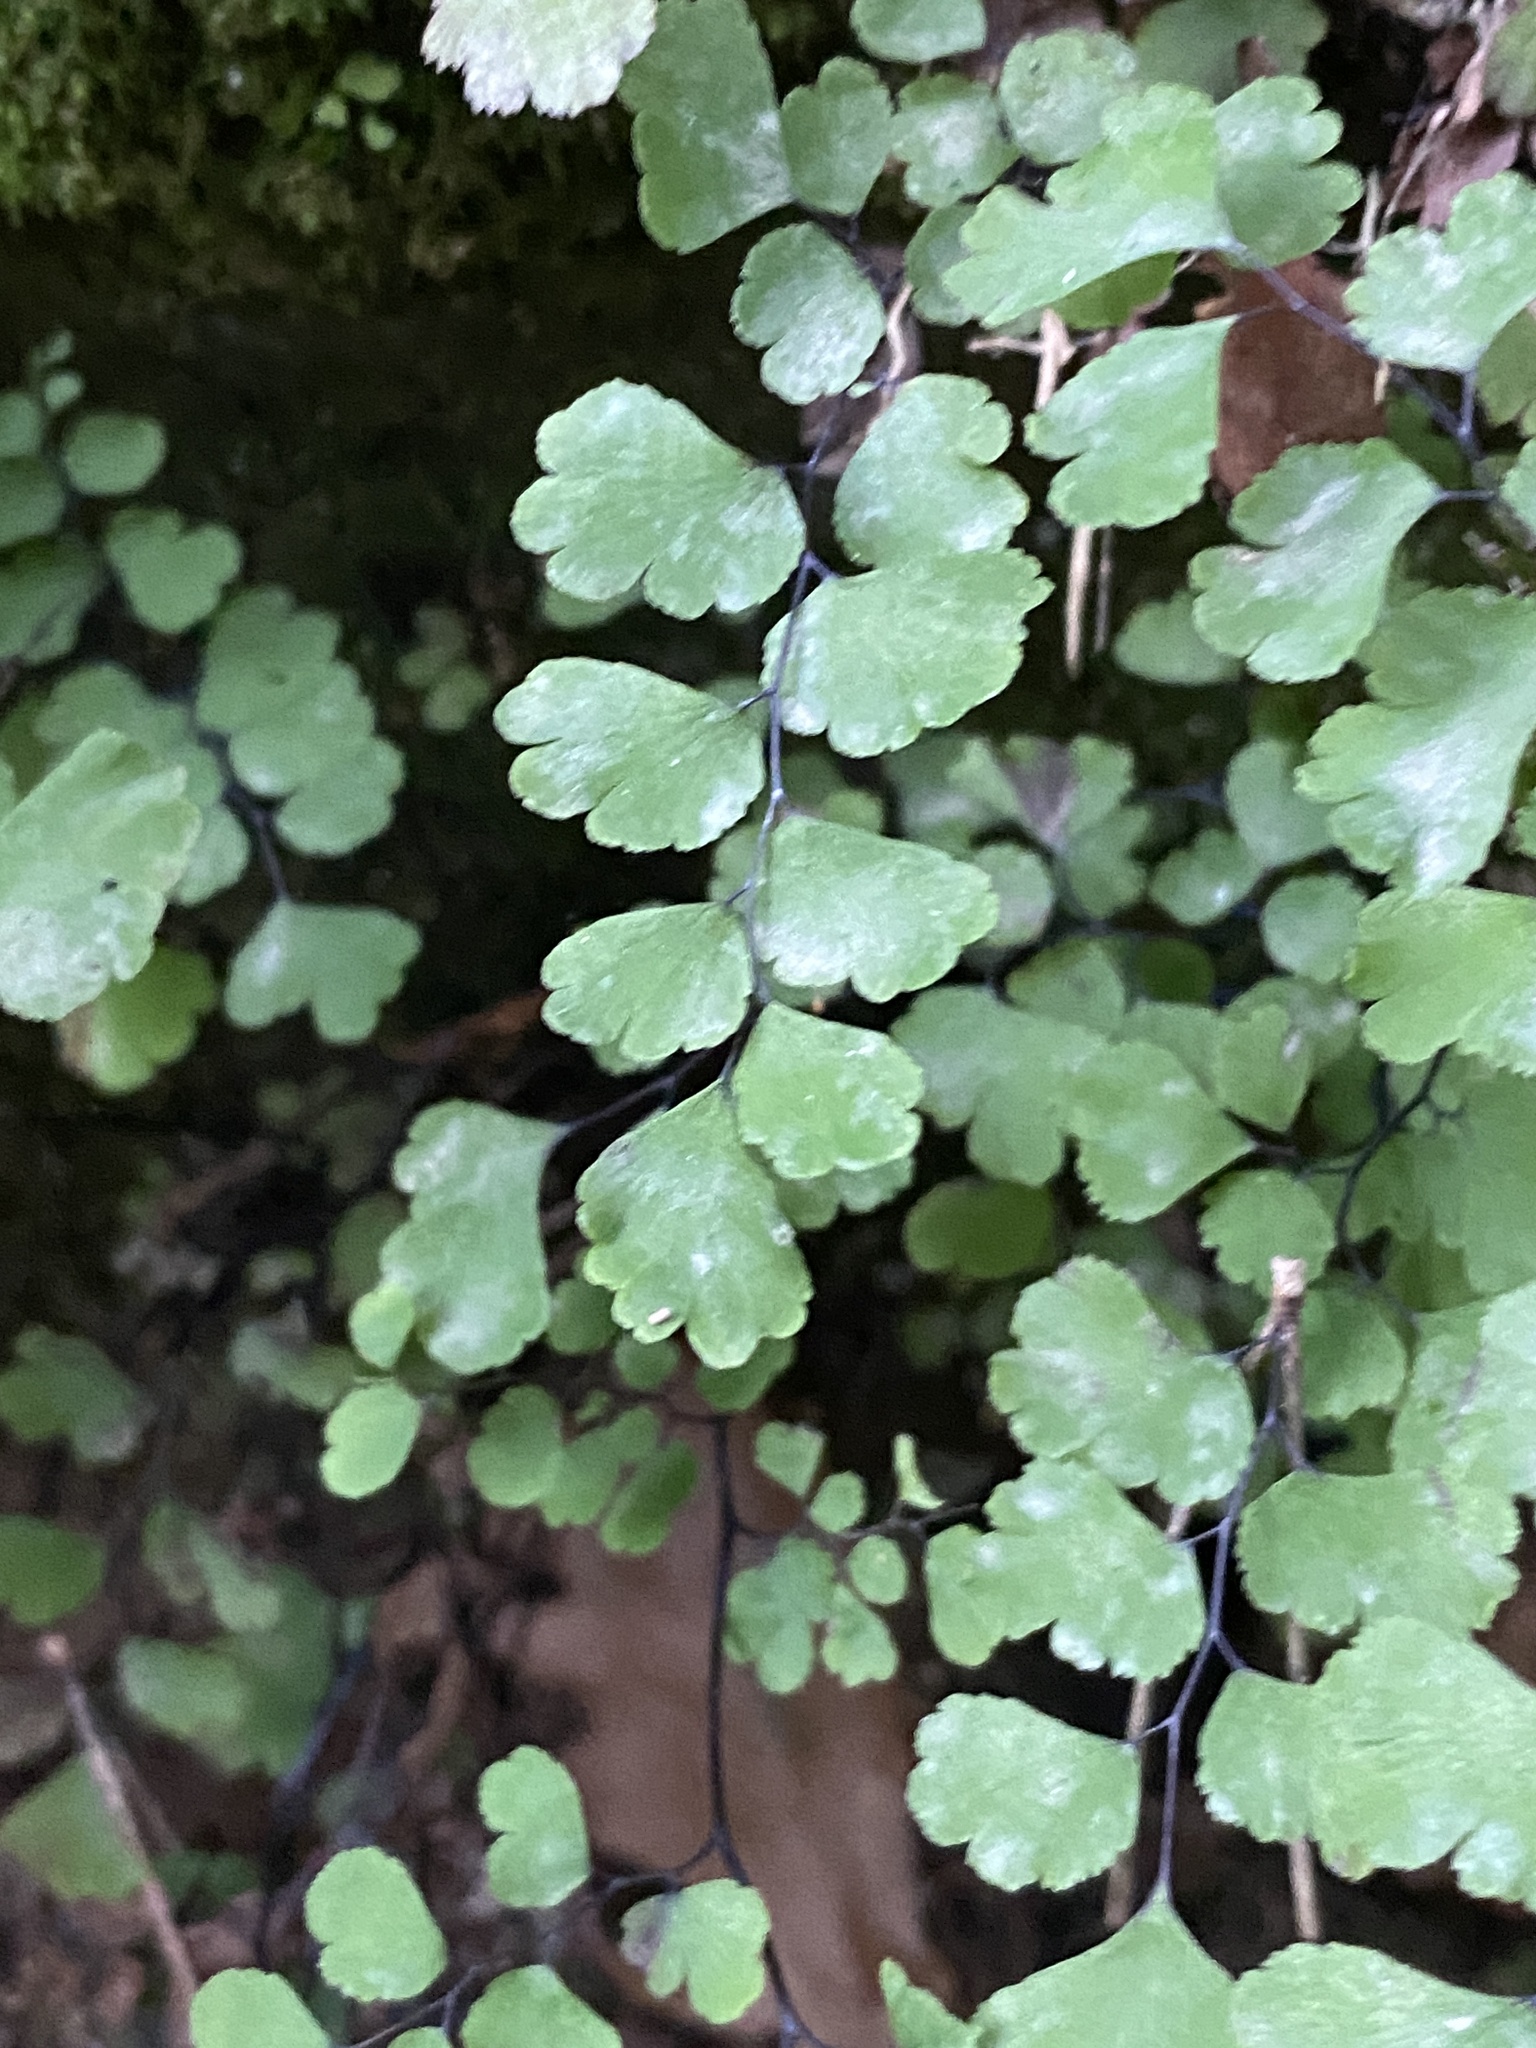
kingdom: Plantae
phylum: Tracheophyta
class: Polypodiopsida
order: Polypodiales
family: Pteridaceae
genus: Adiantum
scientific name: Adiantum capillus-veneris
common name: Maidenhair fern
